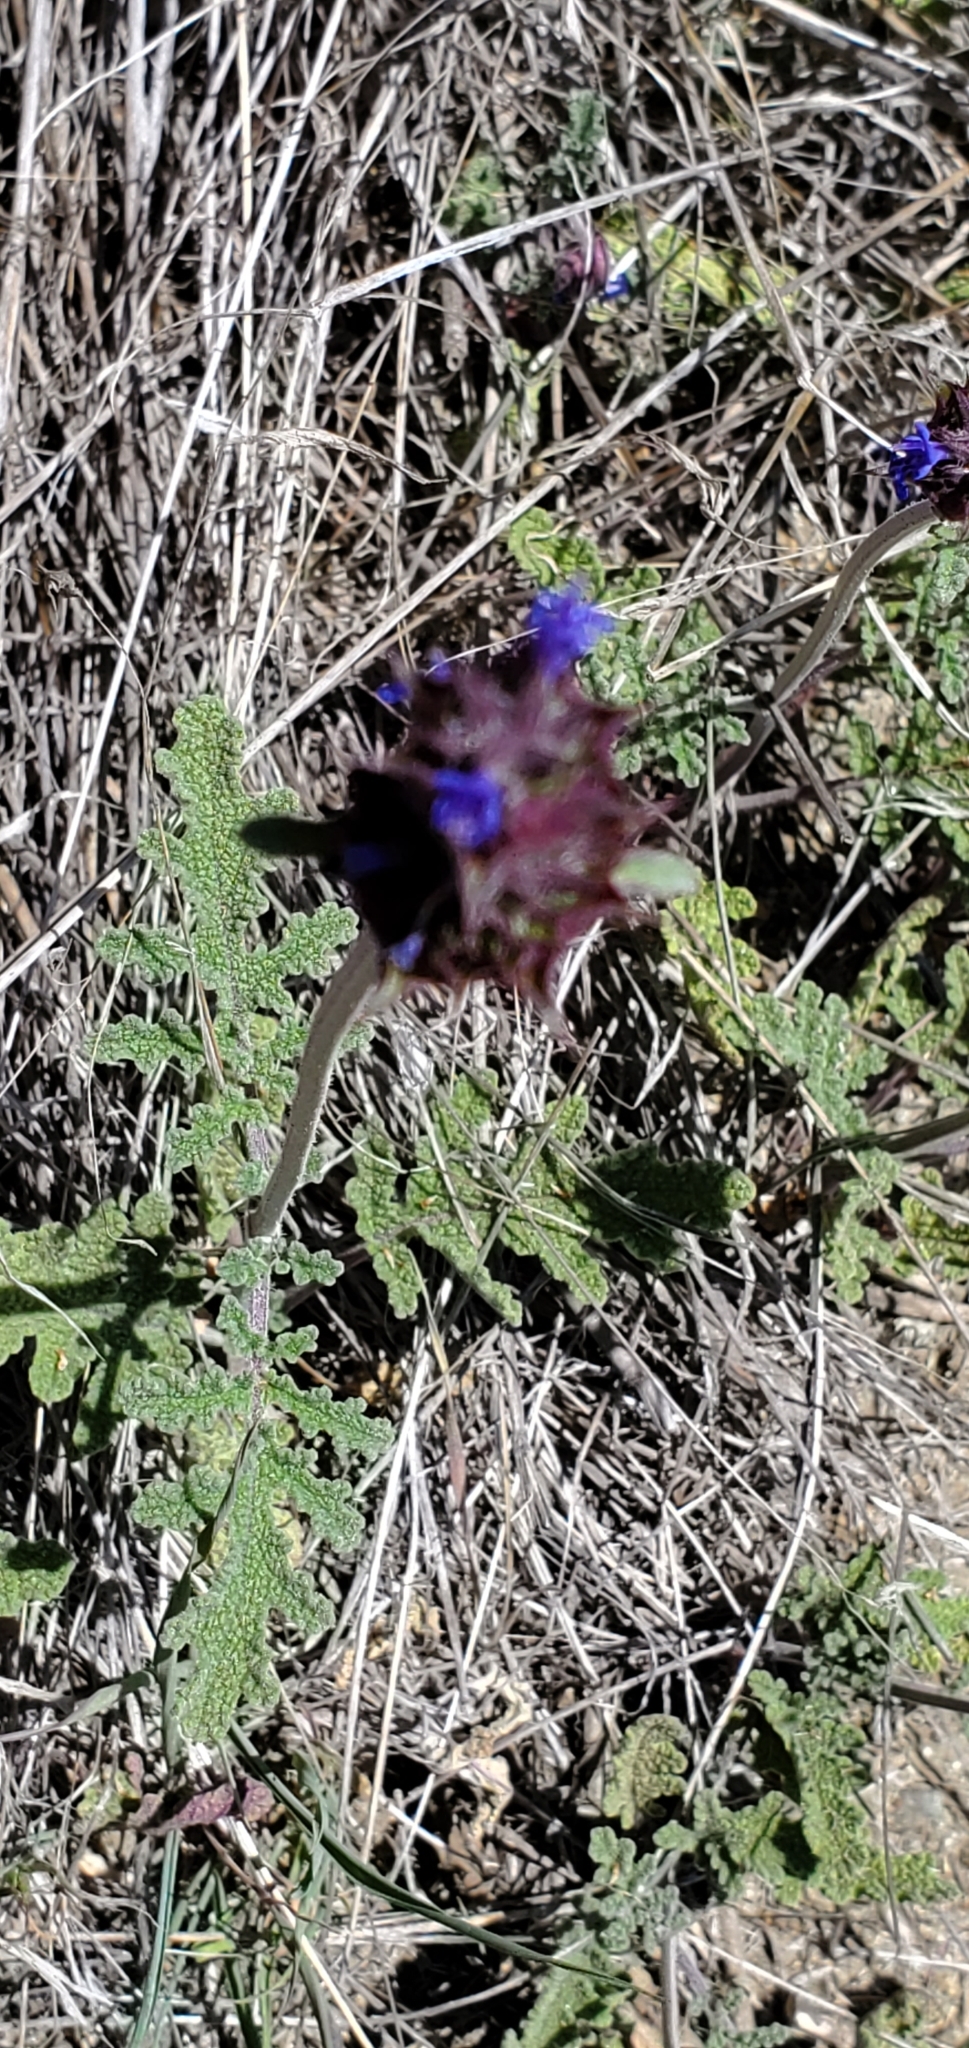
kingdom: Plantae
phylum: Tracheophyta
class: Magnoliopsida
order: Lamiales
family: Lamiaceae
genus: Salvia
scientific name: Salvia columbariae
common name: Chia
